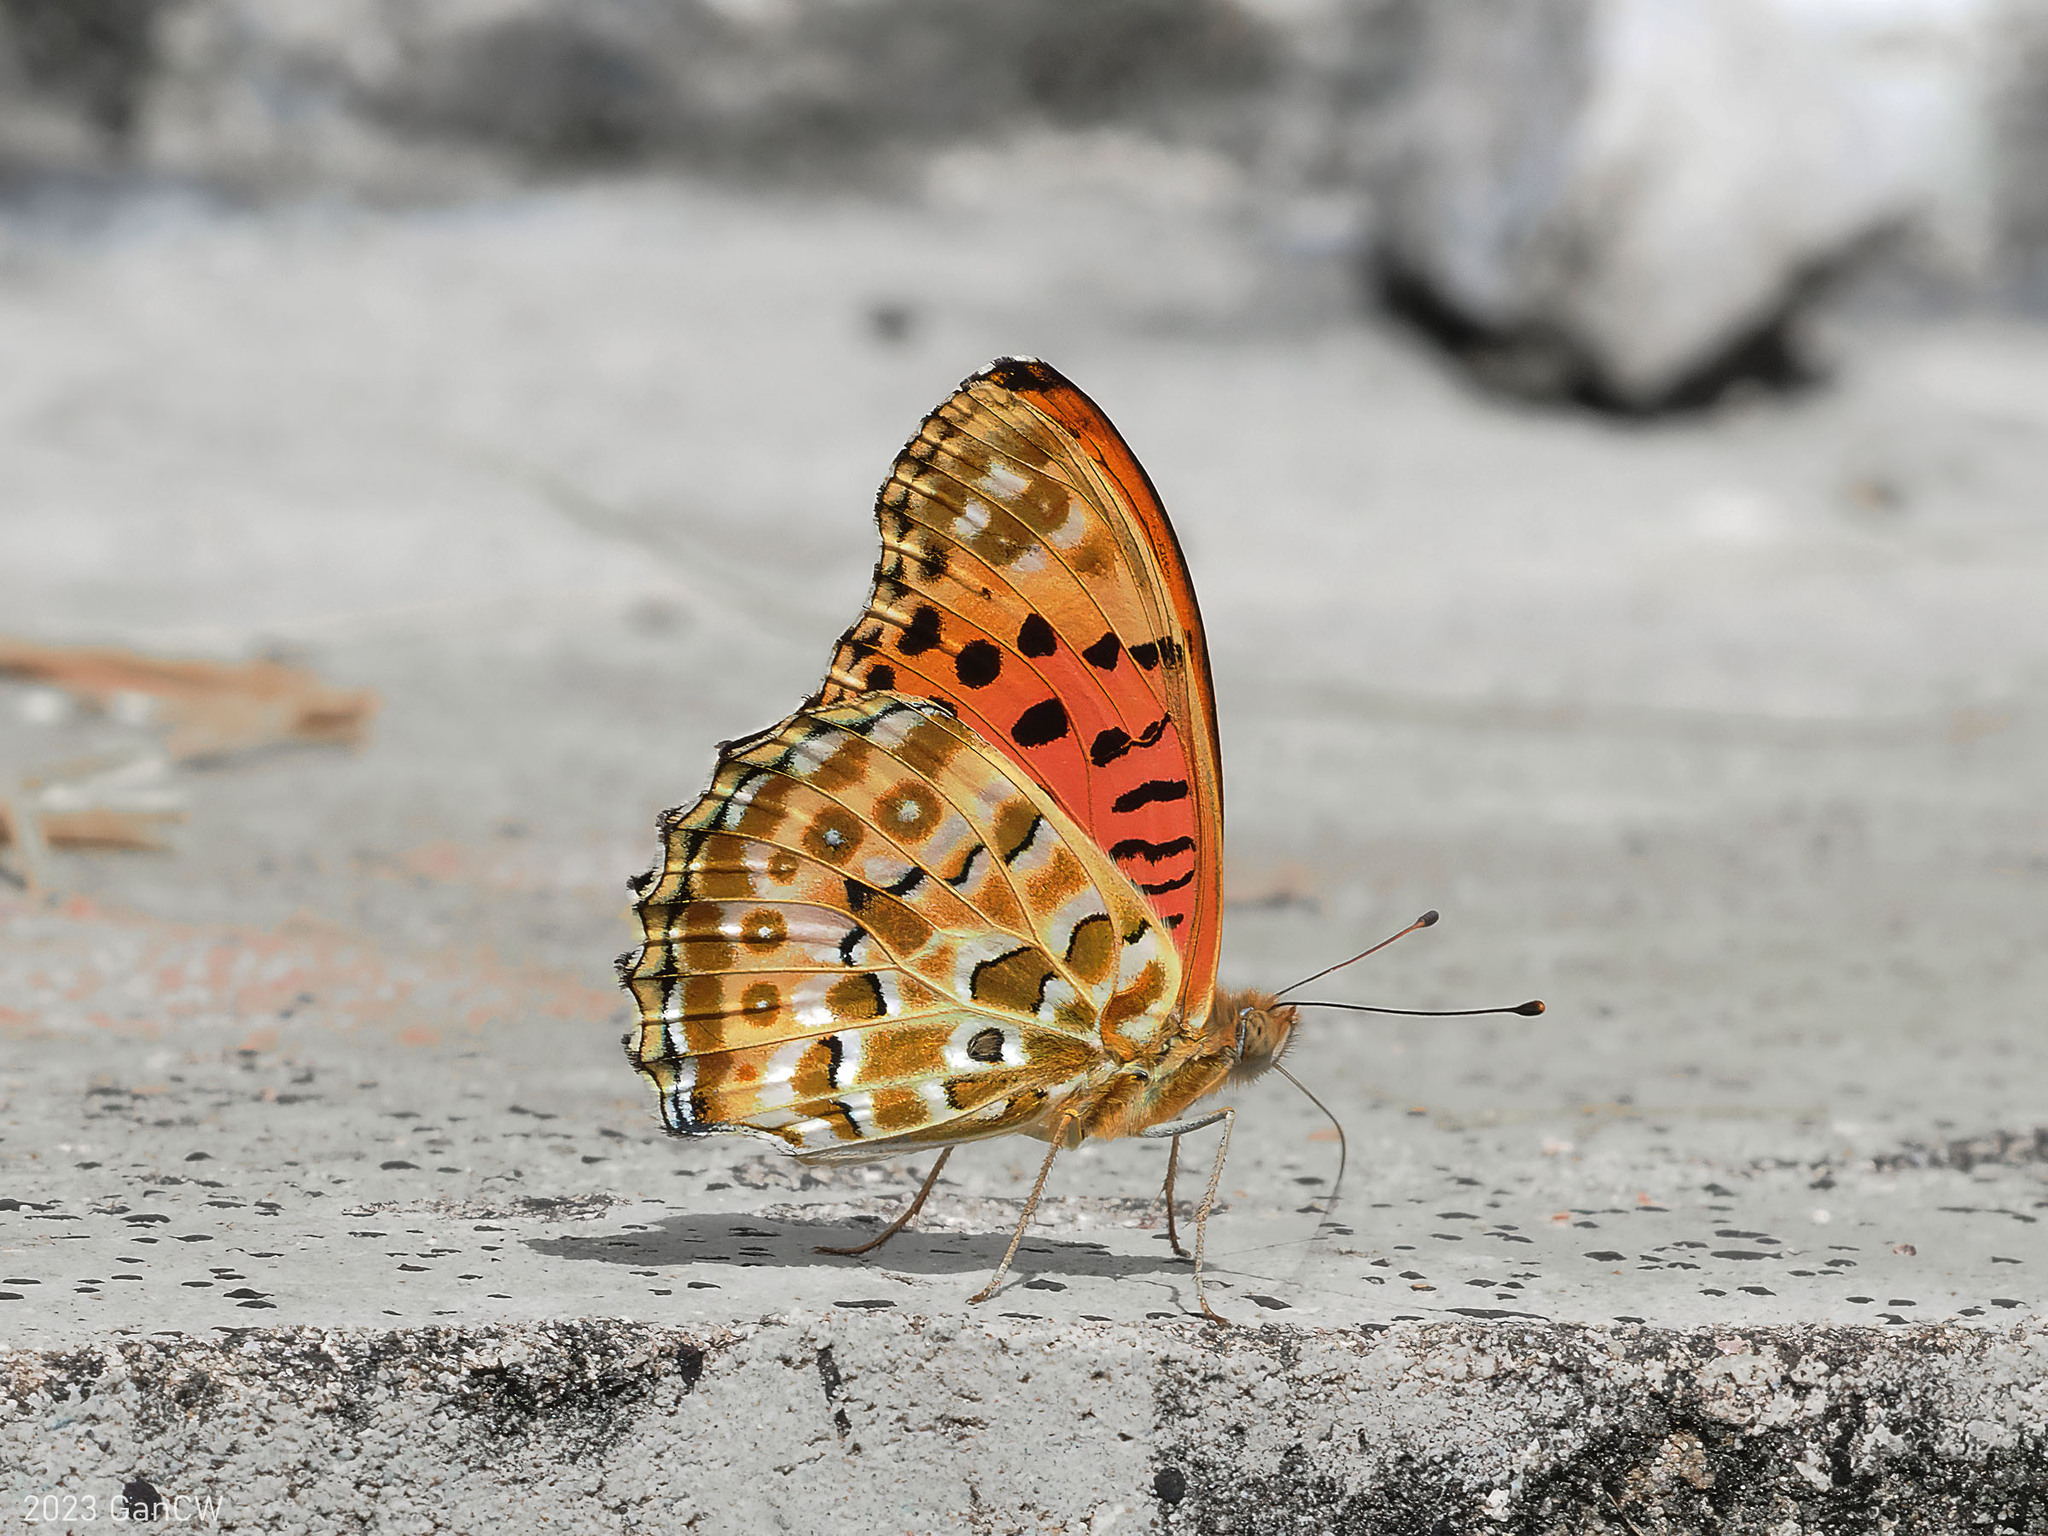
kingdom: Animalia
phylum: Arthropoda
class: Insecta
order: Lepidoptera
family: Nymphalidae
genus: Argynnis
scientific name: Argynnis hyperbius
